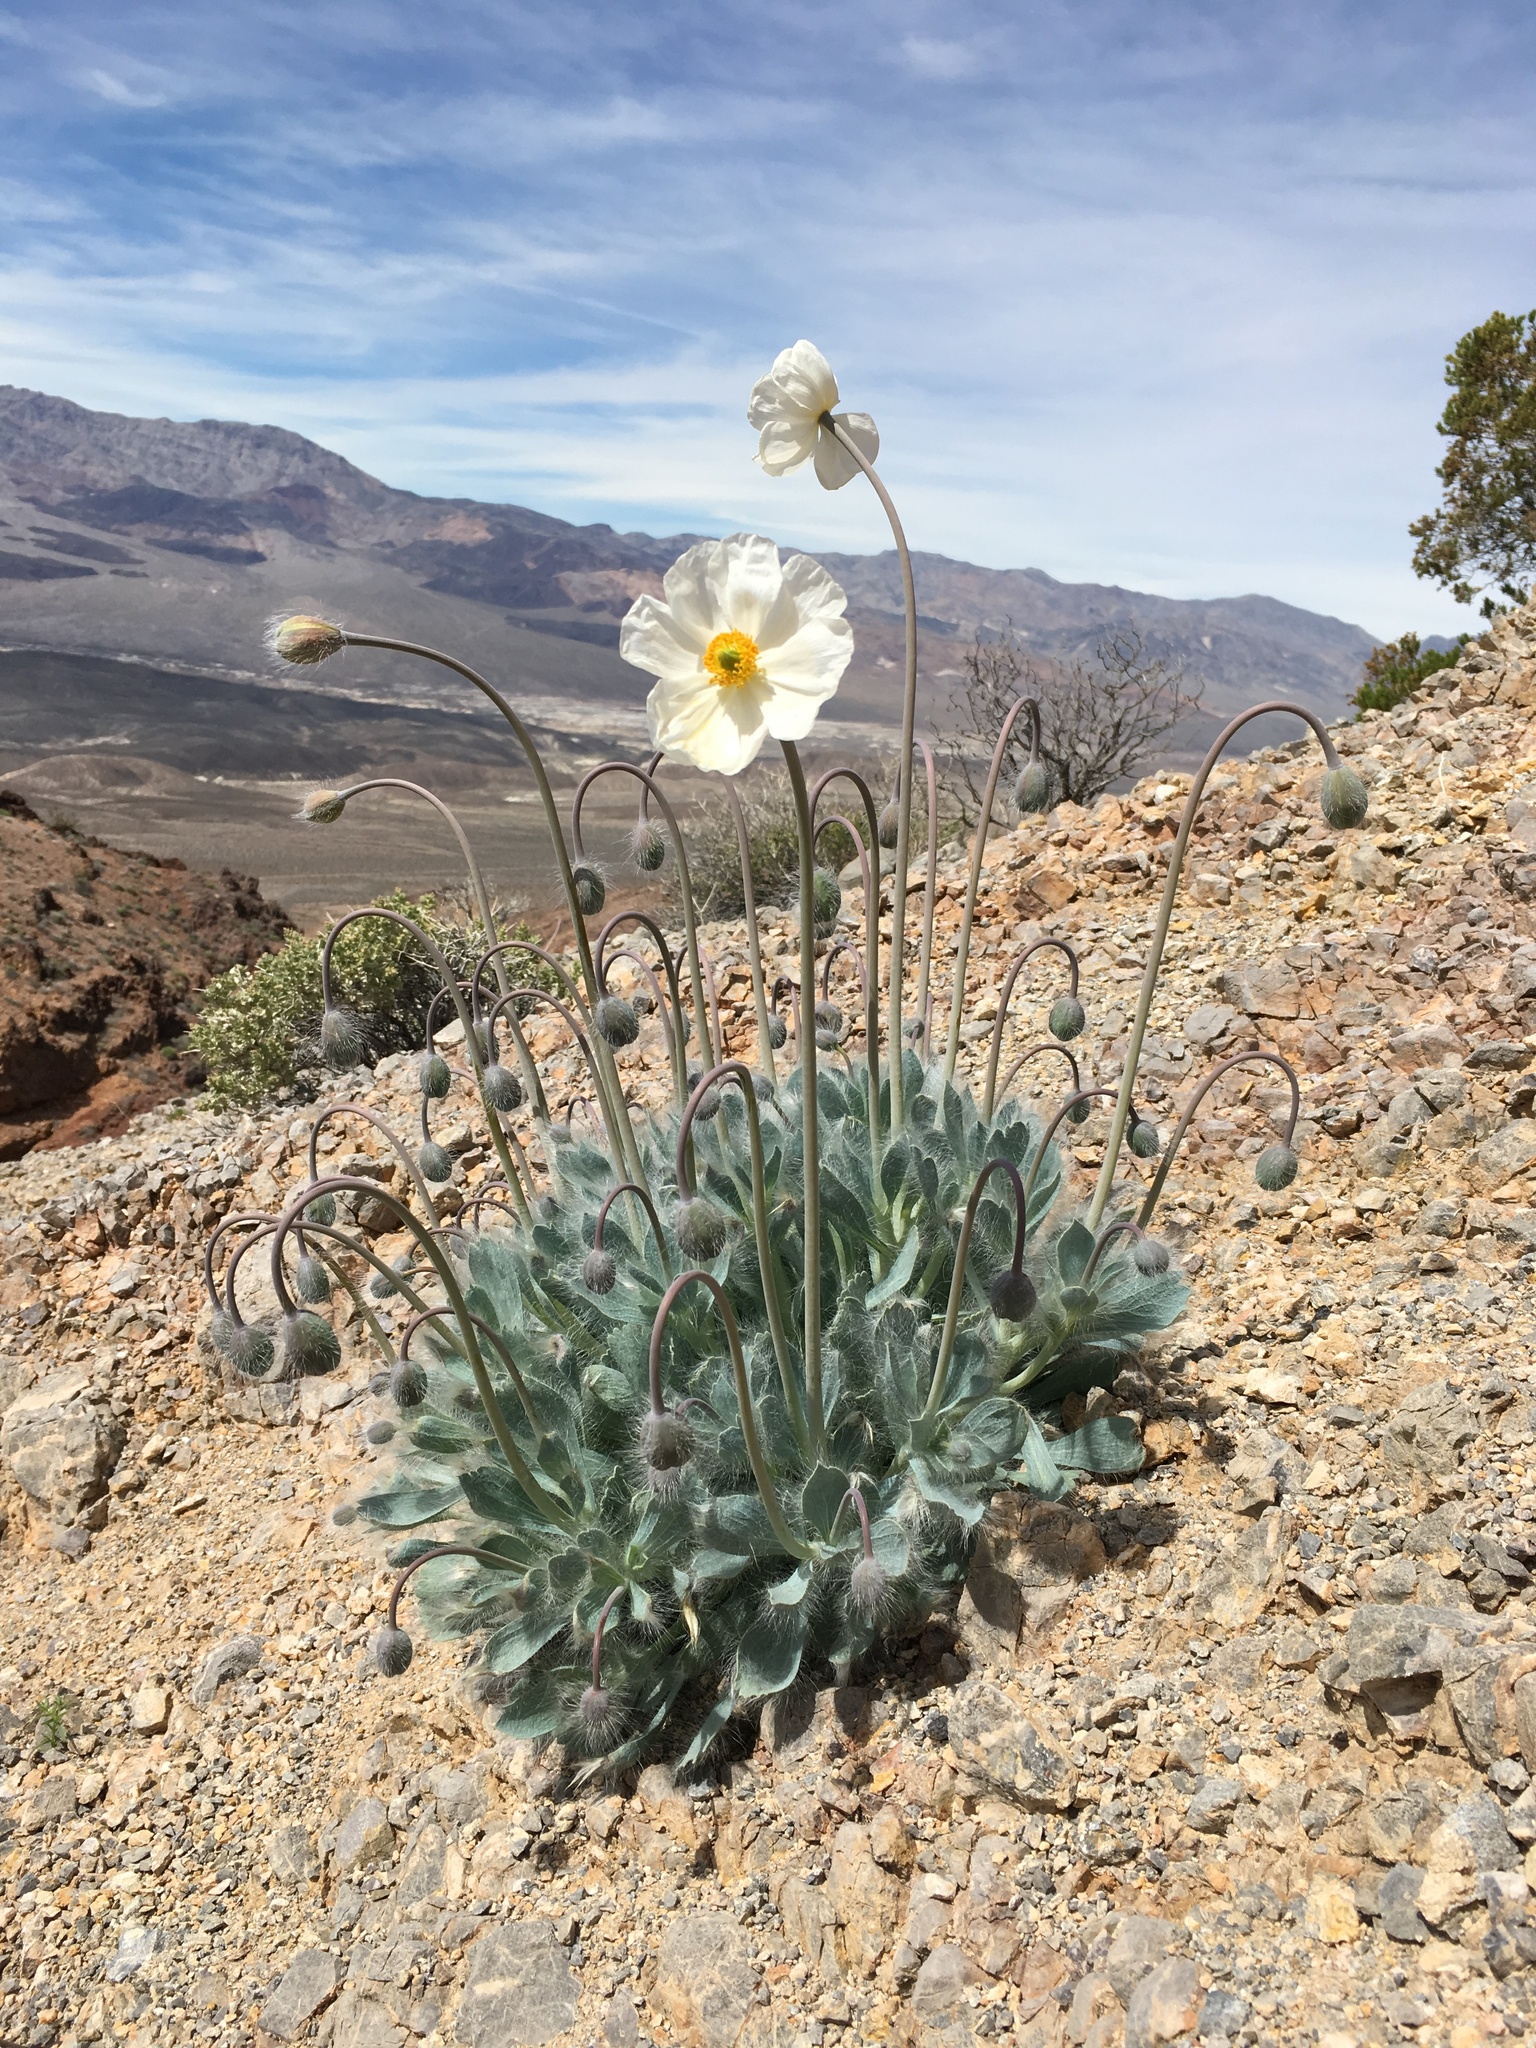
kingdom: Plantae
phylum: Tracheophyta
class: Magnoliopsida
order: Ranunculales
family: Papaveraceae
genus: Arctomecon
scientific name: Arctomecon merriamii
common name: White bear-poppy
